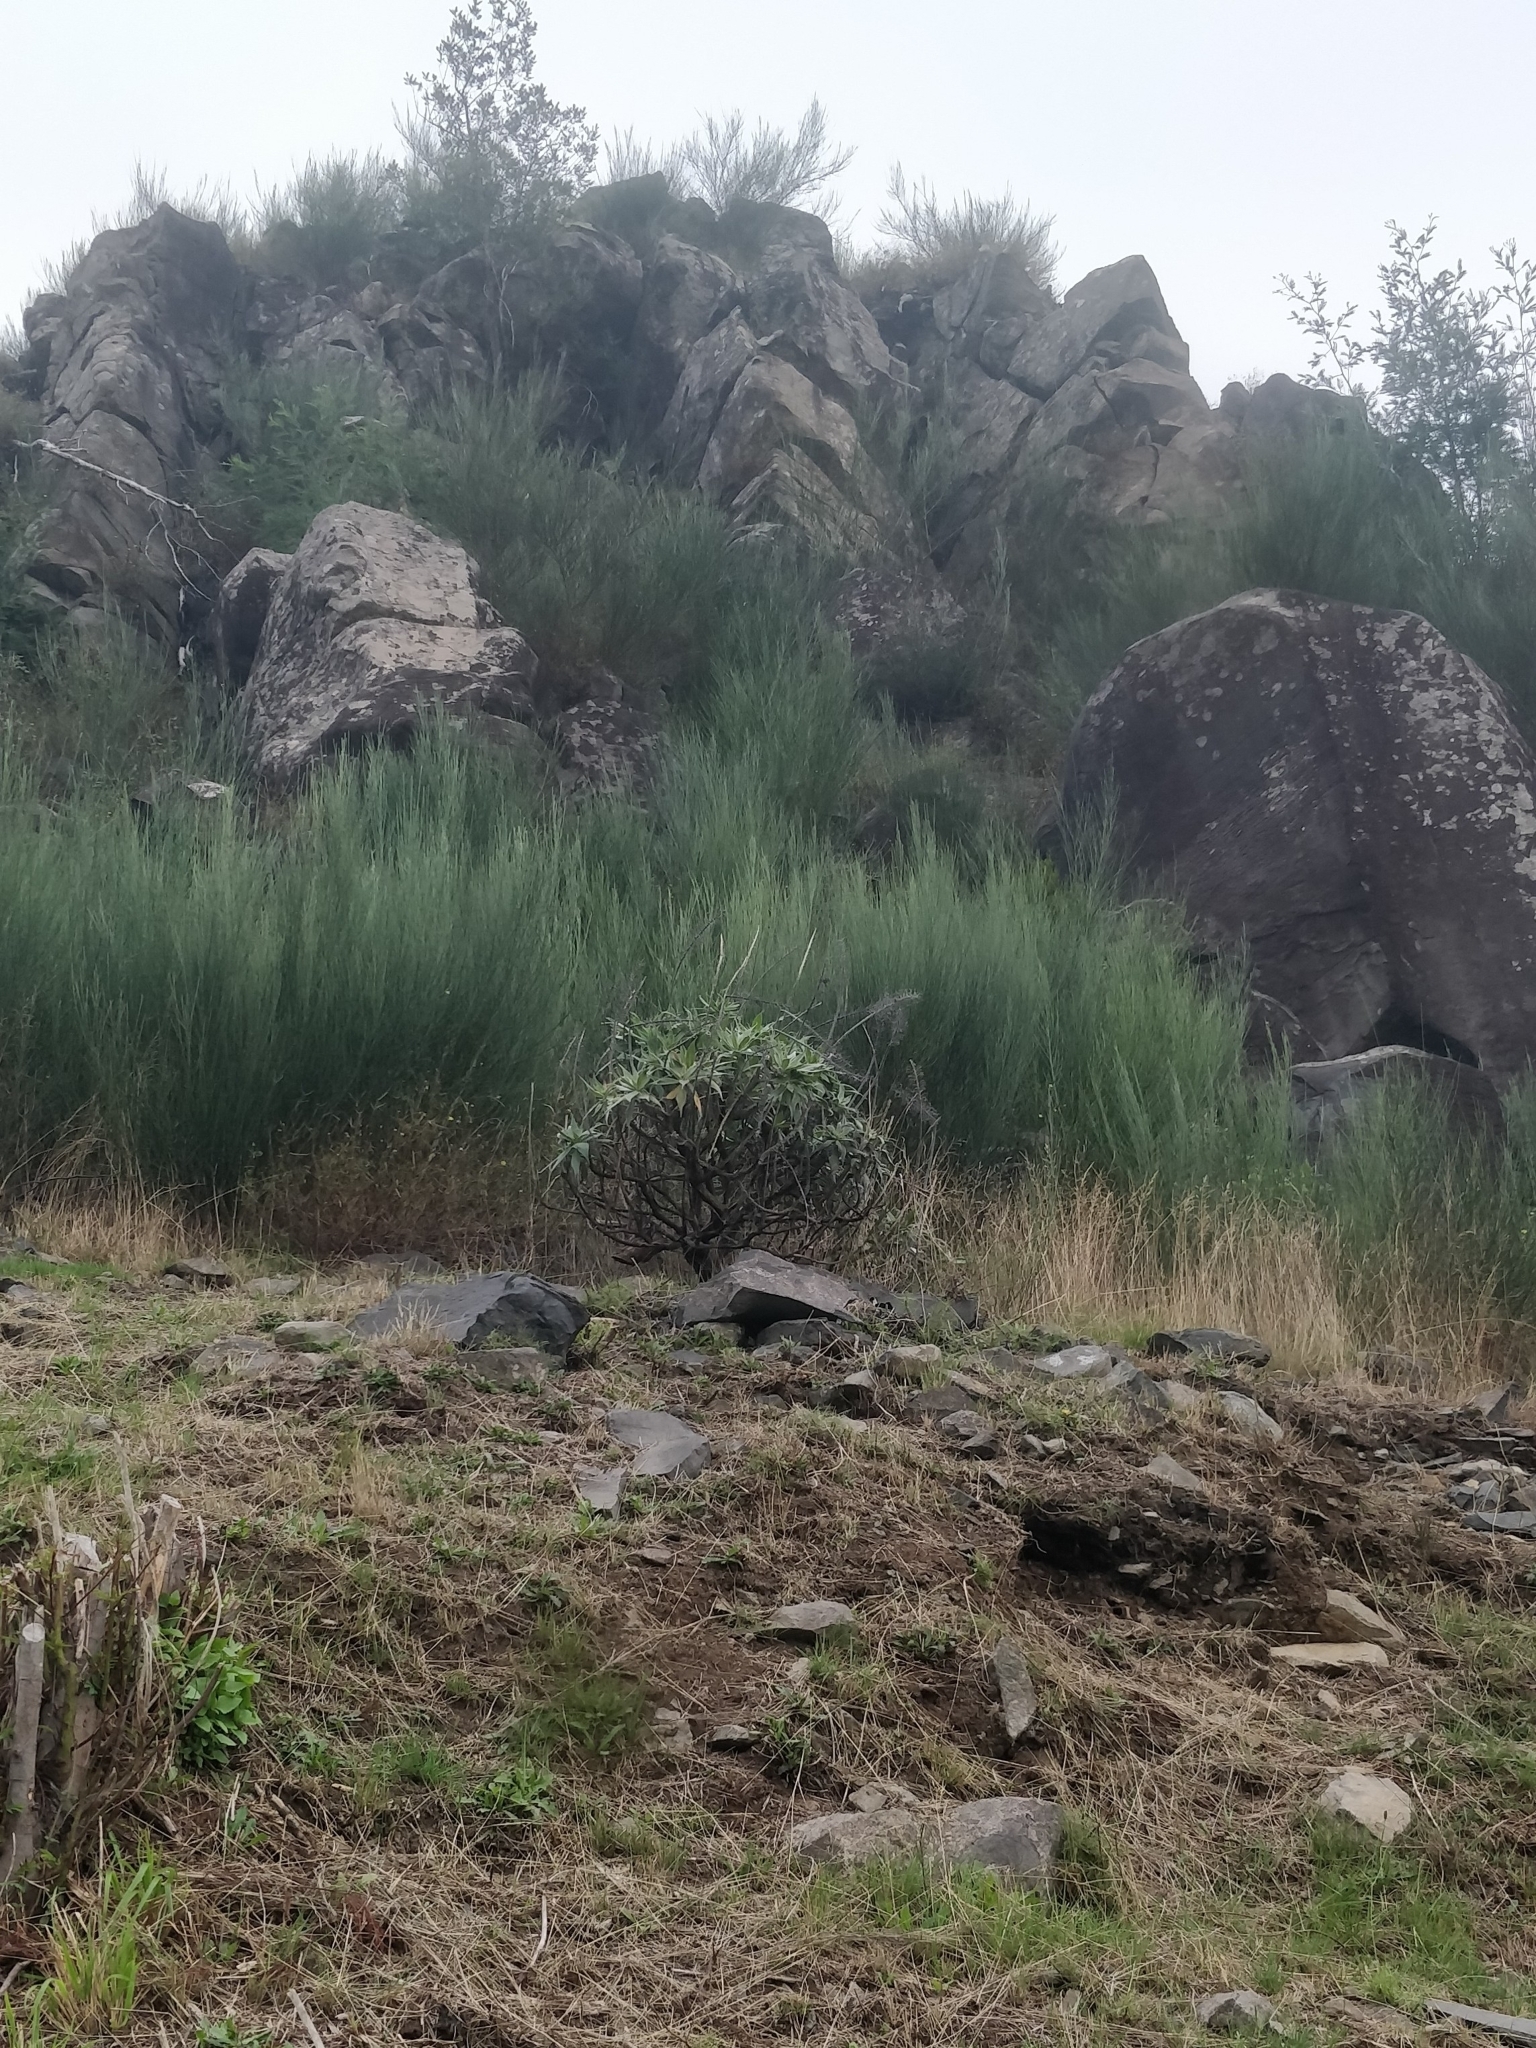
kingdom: Plantae
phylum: Tracheophyta
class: Magnoliopsida
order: Boraginales
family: Boraginaceae
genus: Echium
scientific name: Echium candicans
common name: Pride of madeira
